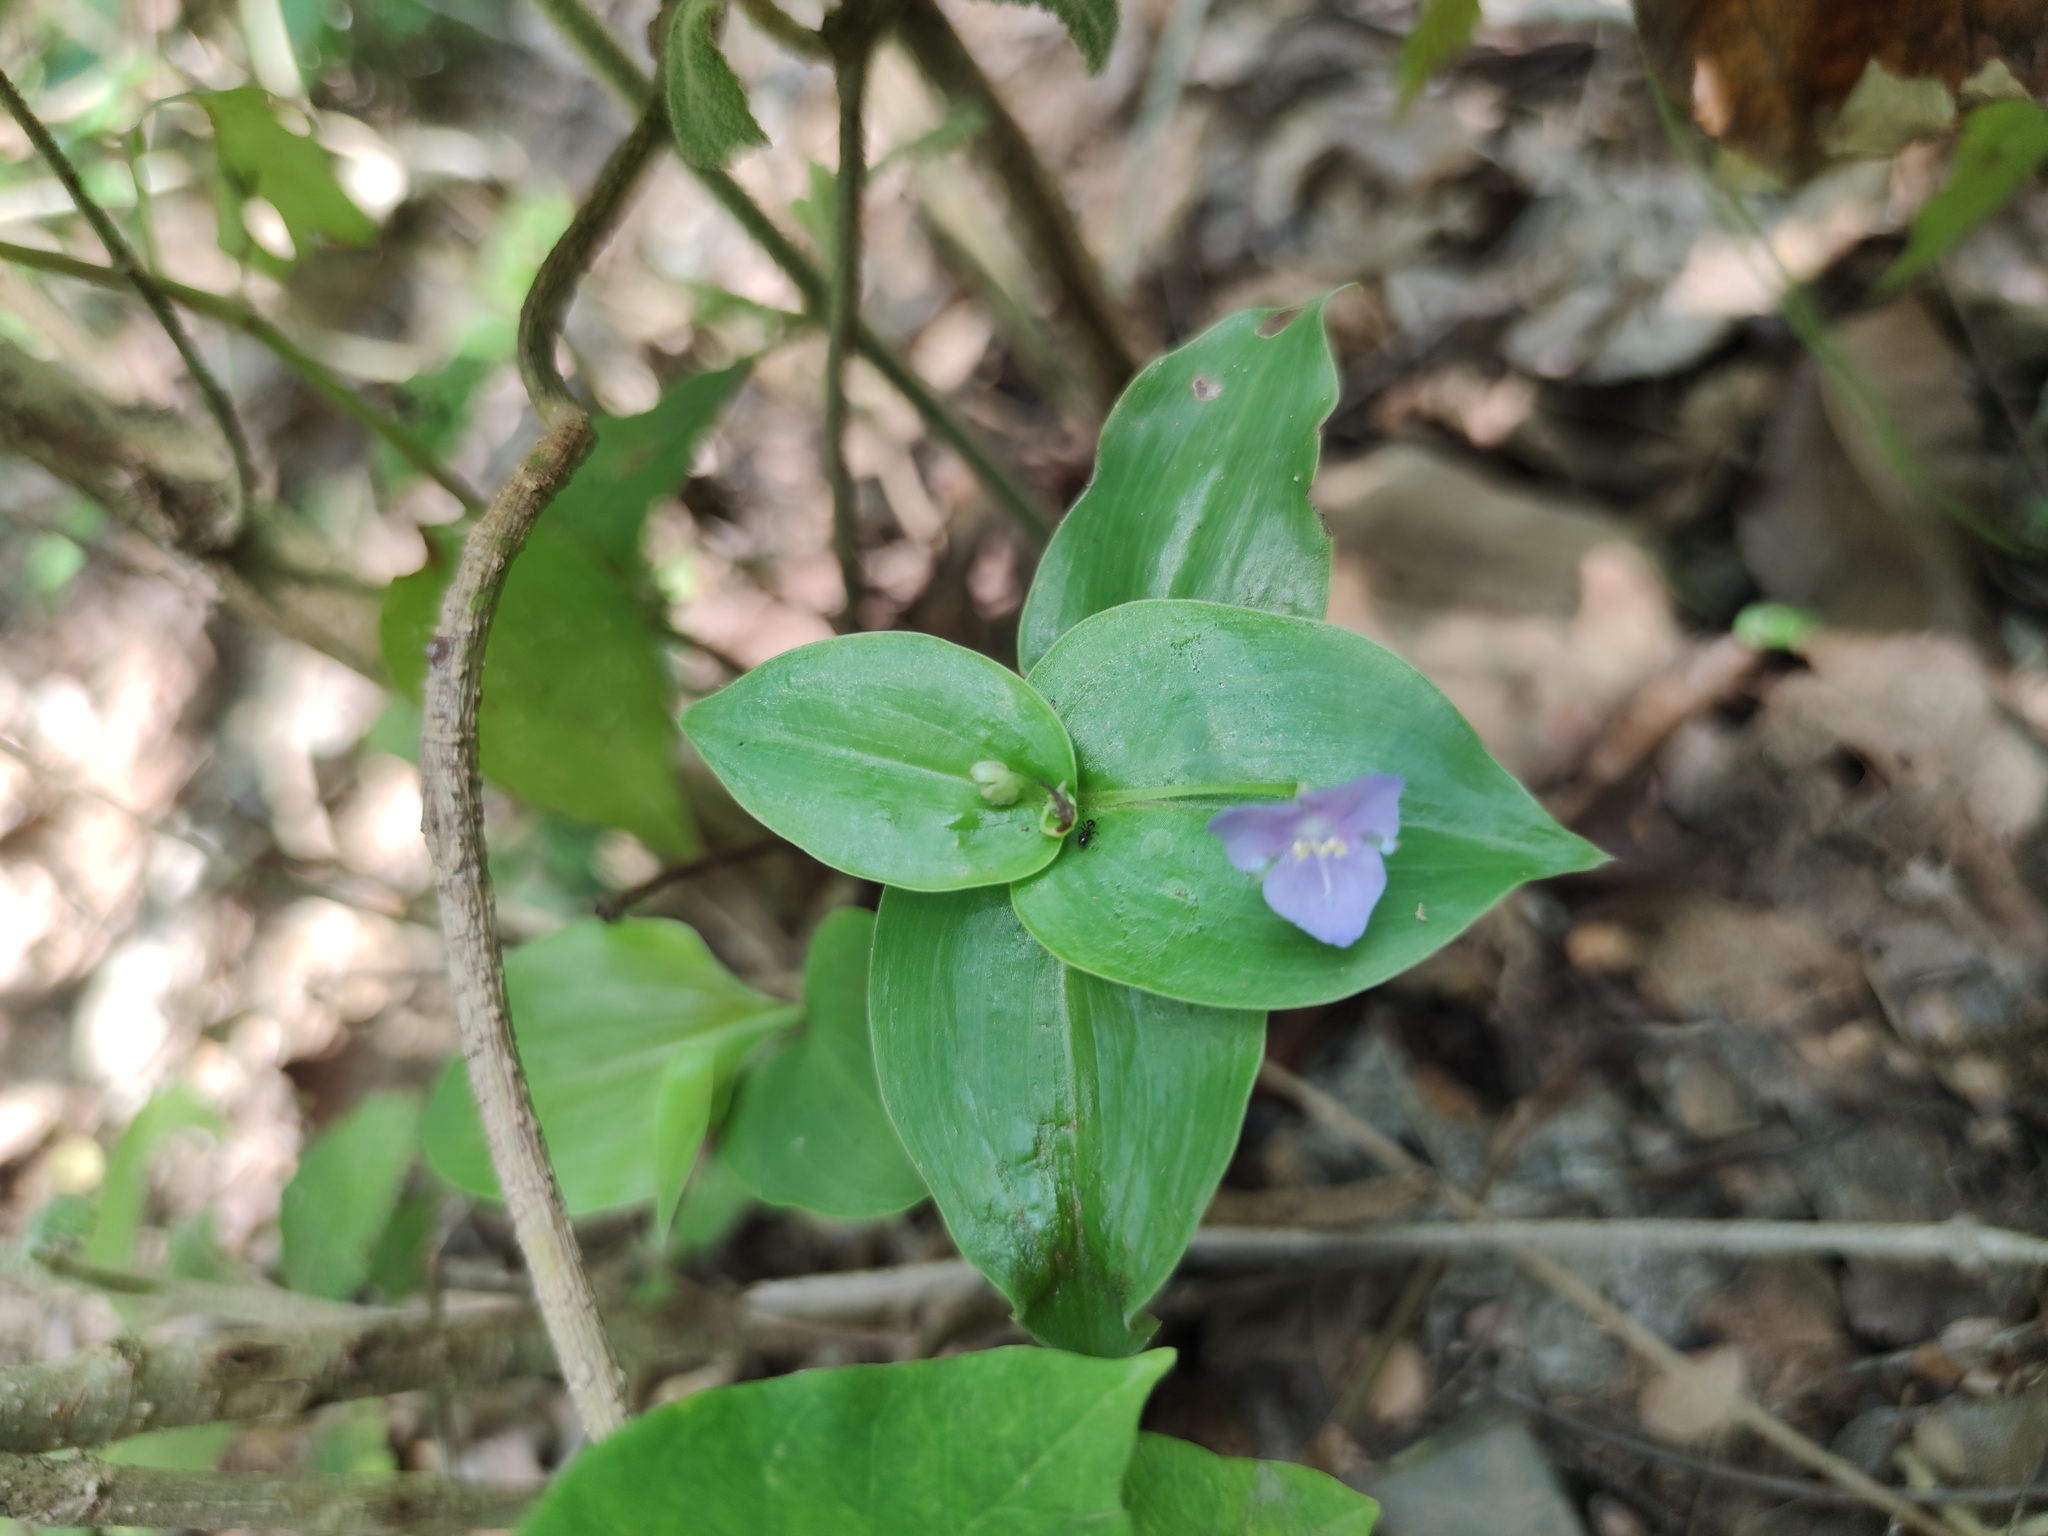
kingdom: Plantae
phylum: Tracheophyta
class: Liliopsida
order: Commelinales
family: Commelinaceae
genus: Tinantia
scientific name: Tinantia pringlei
